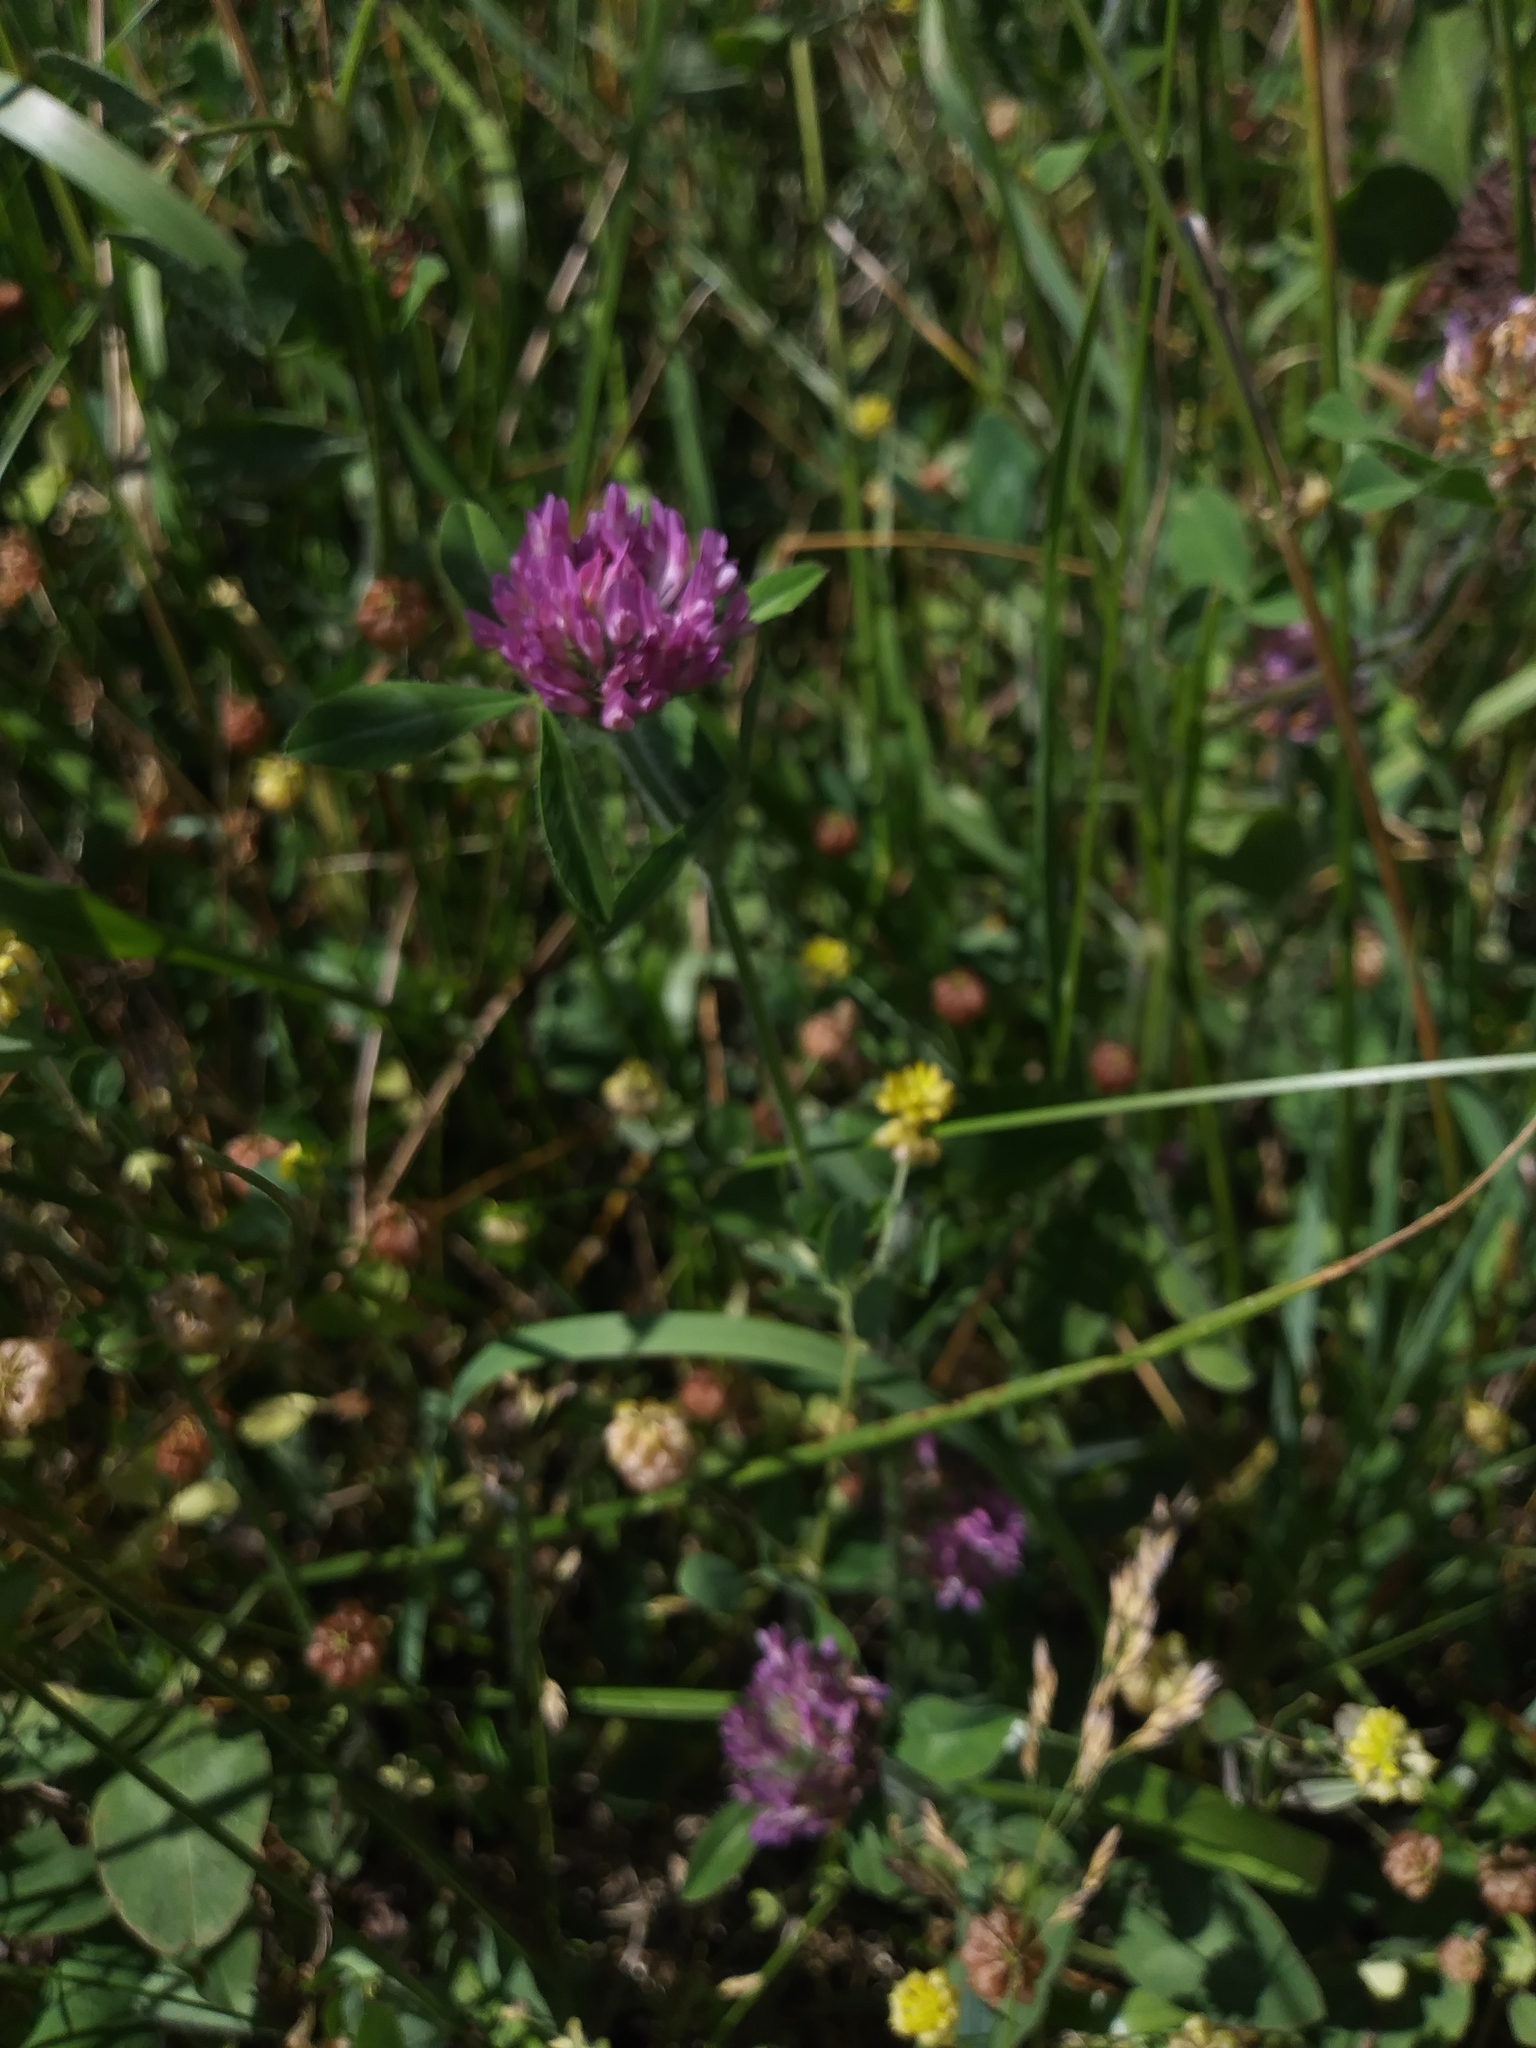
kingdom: Plantae
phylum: Tracheophyta
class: Magnoliopsida
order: Fabales
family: Fabaceae
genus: Trifolium
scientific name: Trifolium pratense
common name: Red clover
